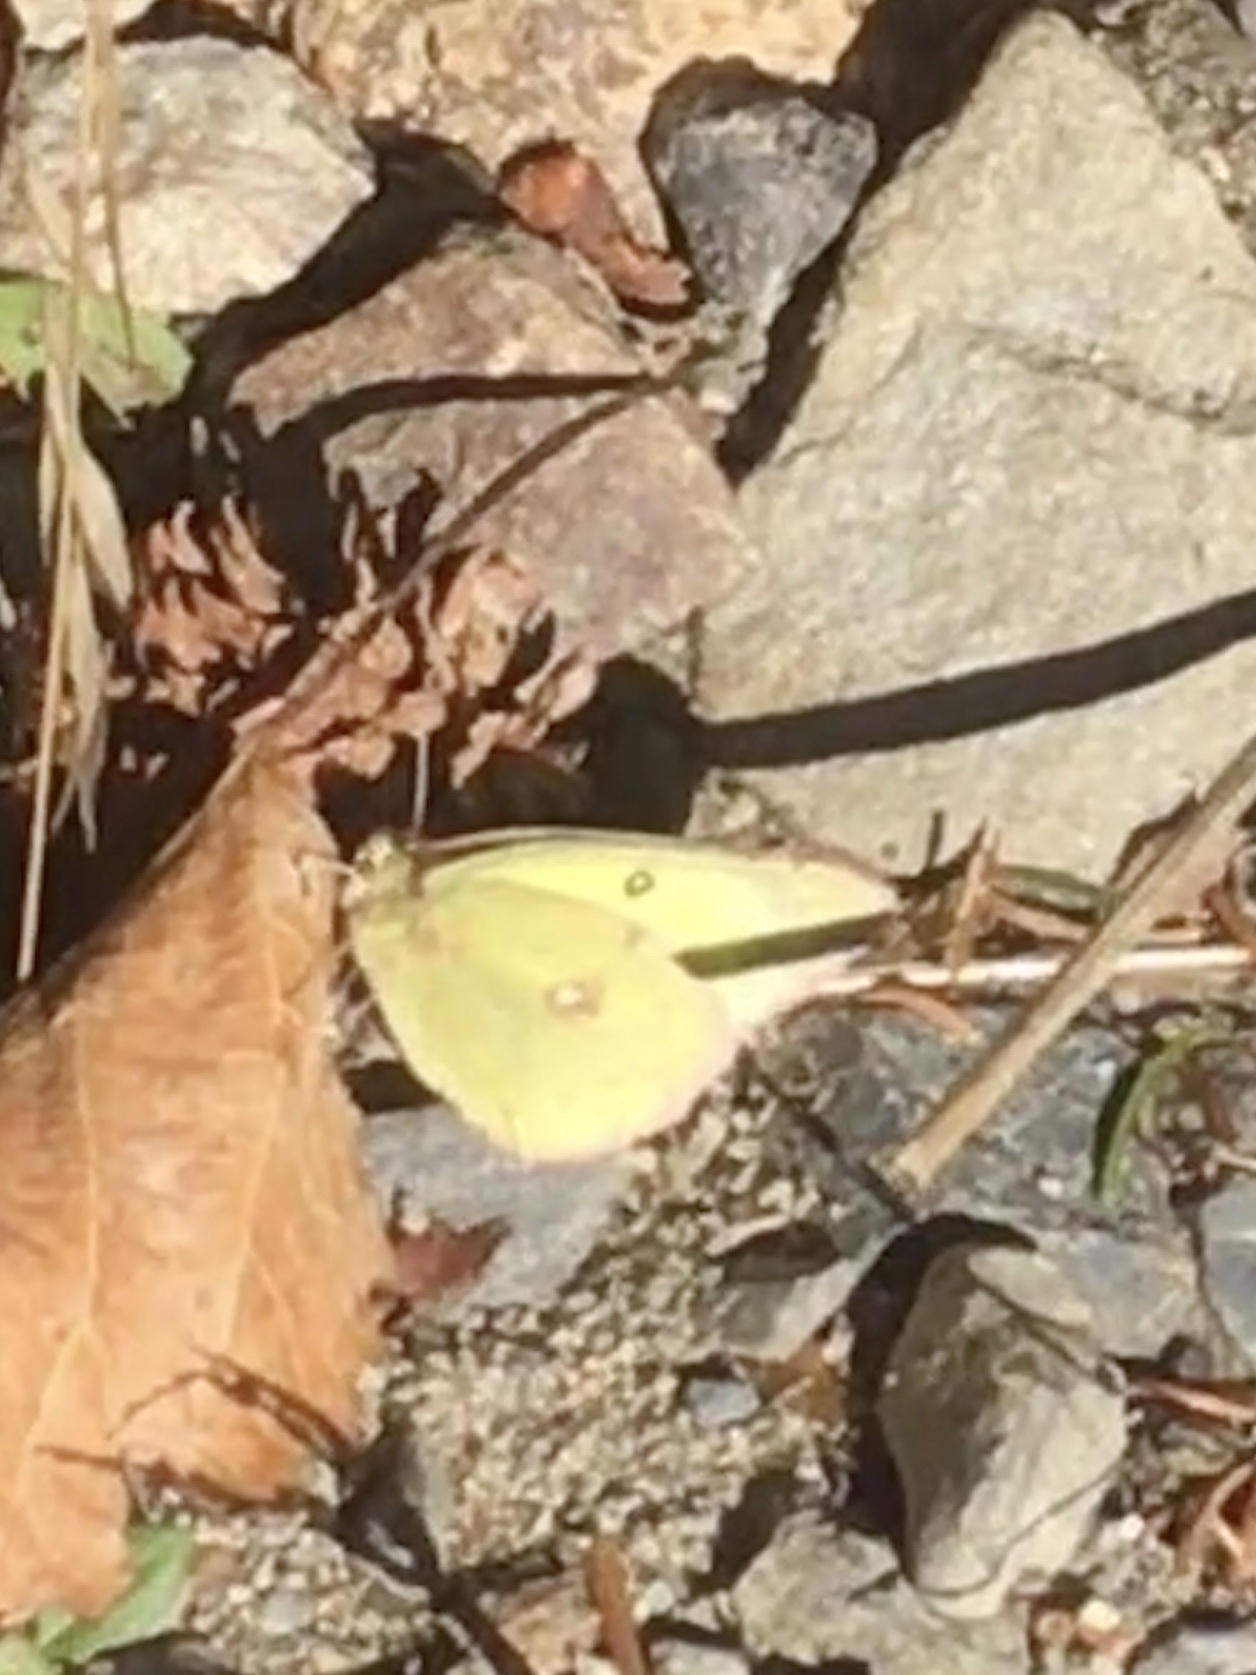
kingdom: Animalia
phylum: Arthropoda
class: Insecta
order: Lepidoptera
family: Pieridae
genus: Colias
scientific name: Colias philodice
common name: Clouded sulphur
